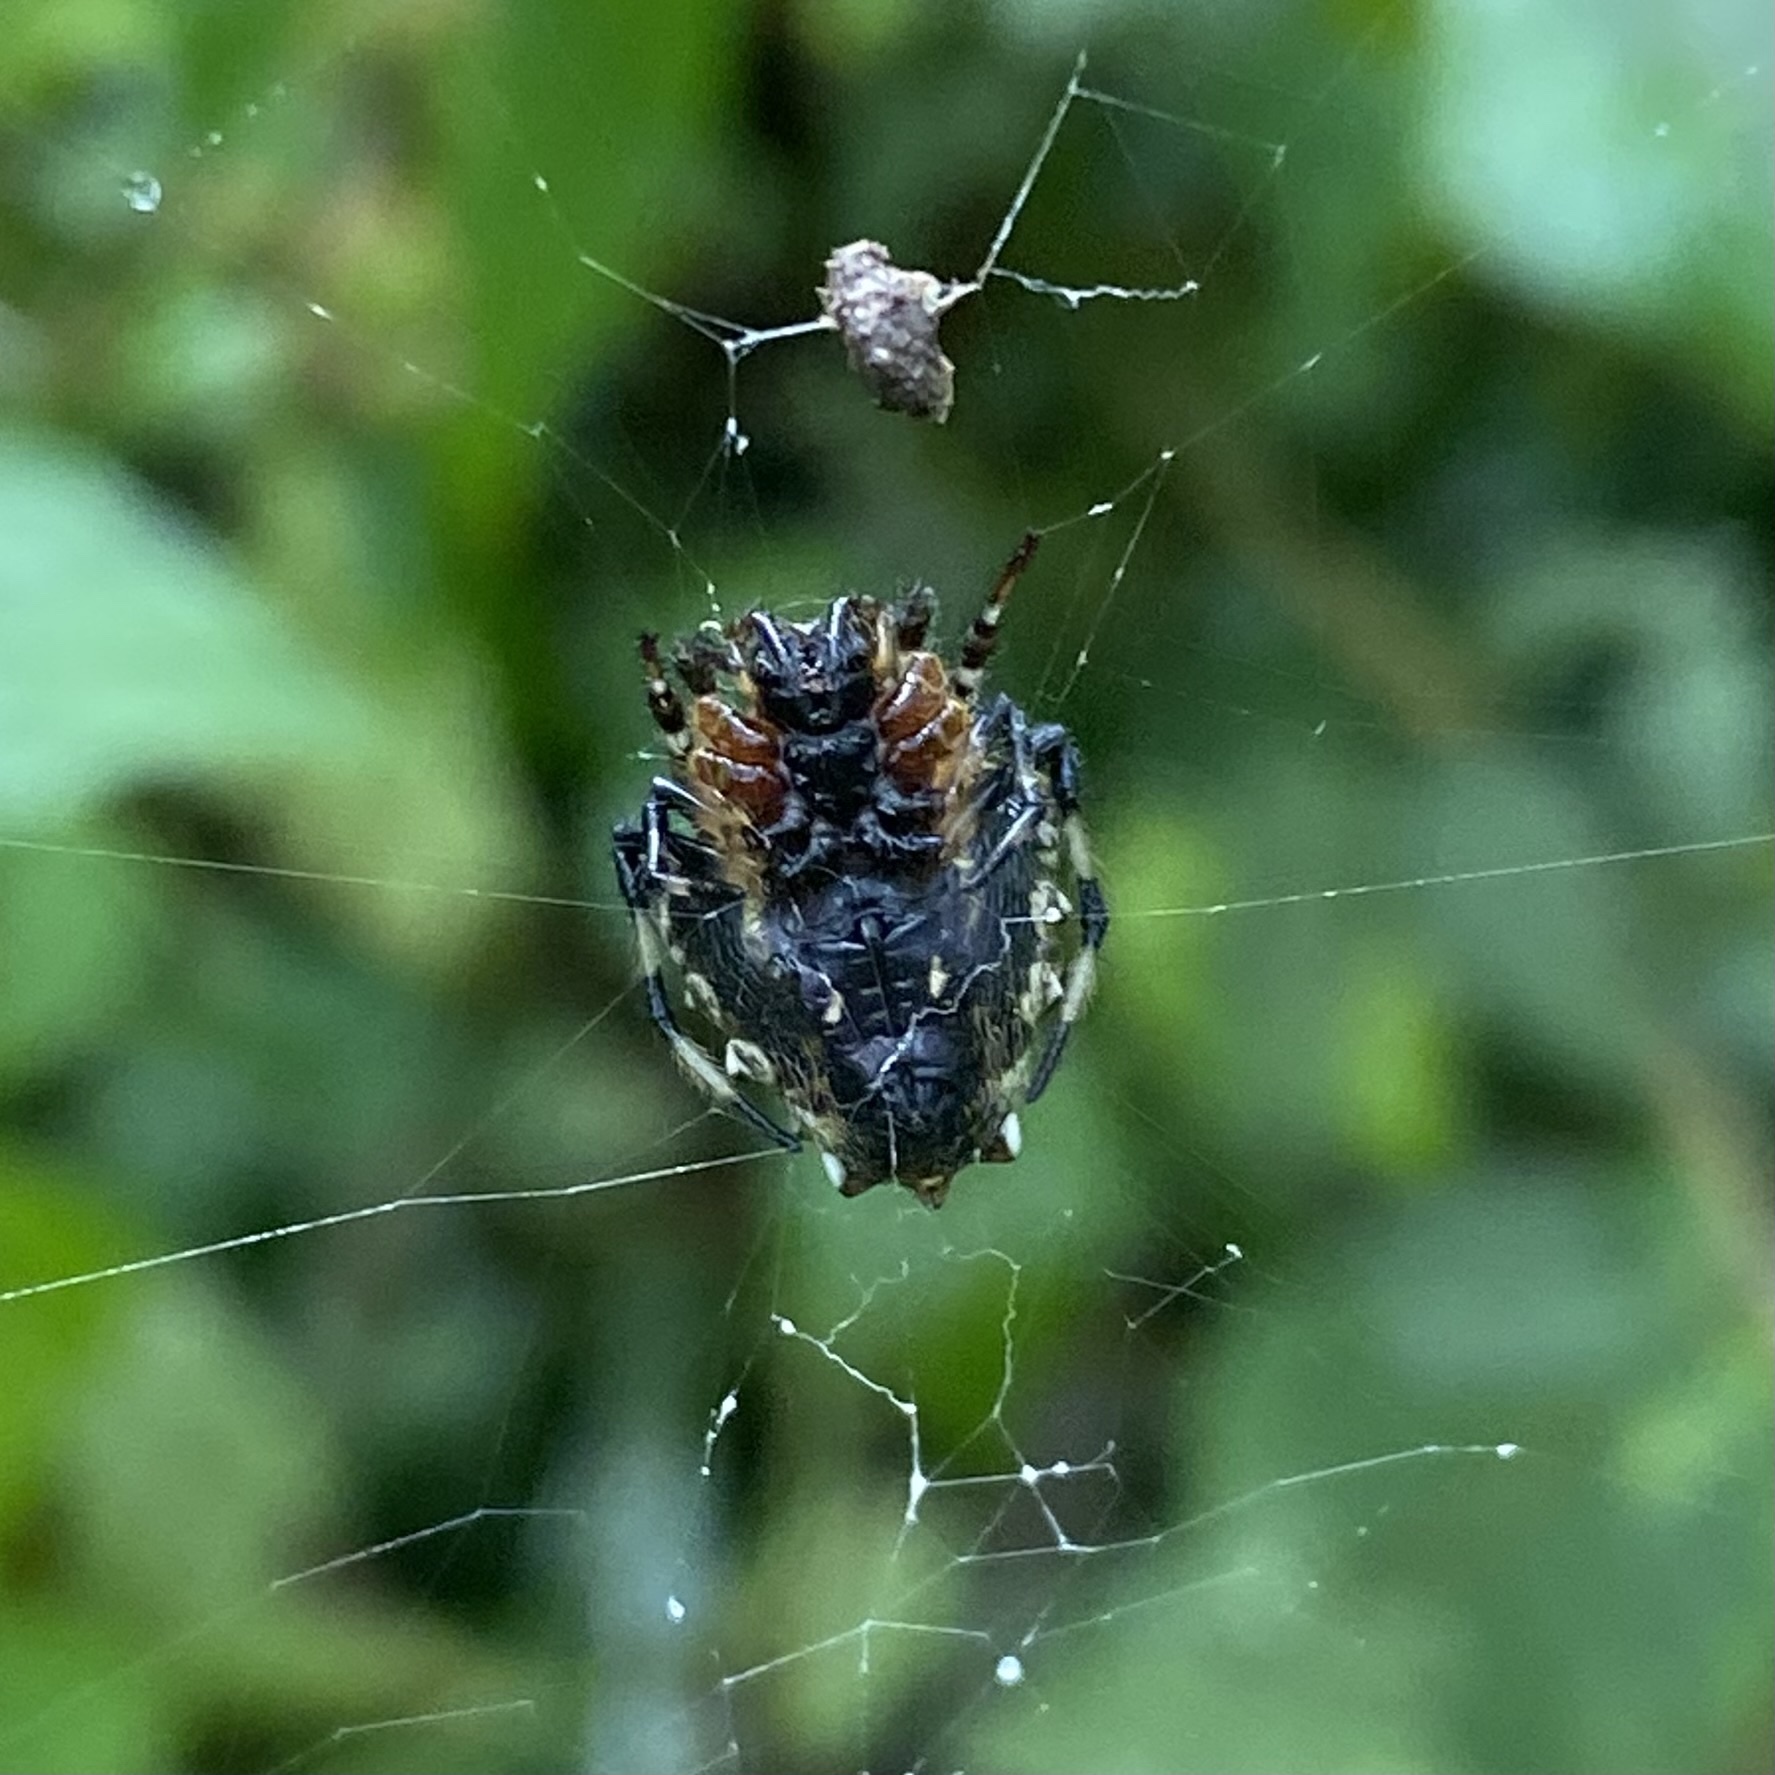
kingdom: Animalia
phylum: Arthropoda
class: Arachnida
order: Araneae
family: Araneidae
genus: Verrucosa
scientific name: Verrucosa arenata
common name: Orb weavers
